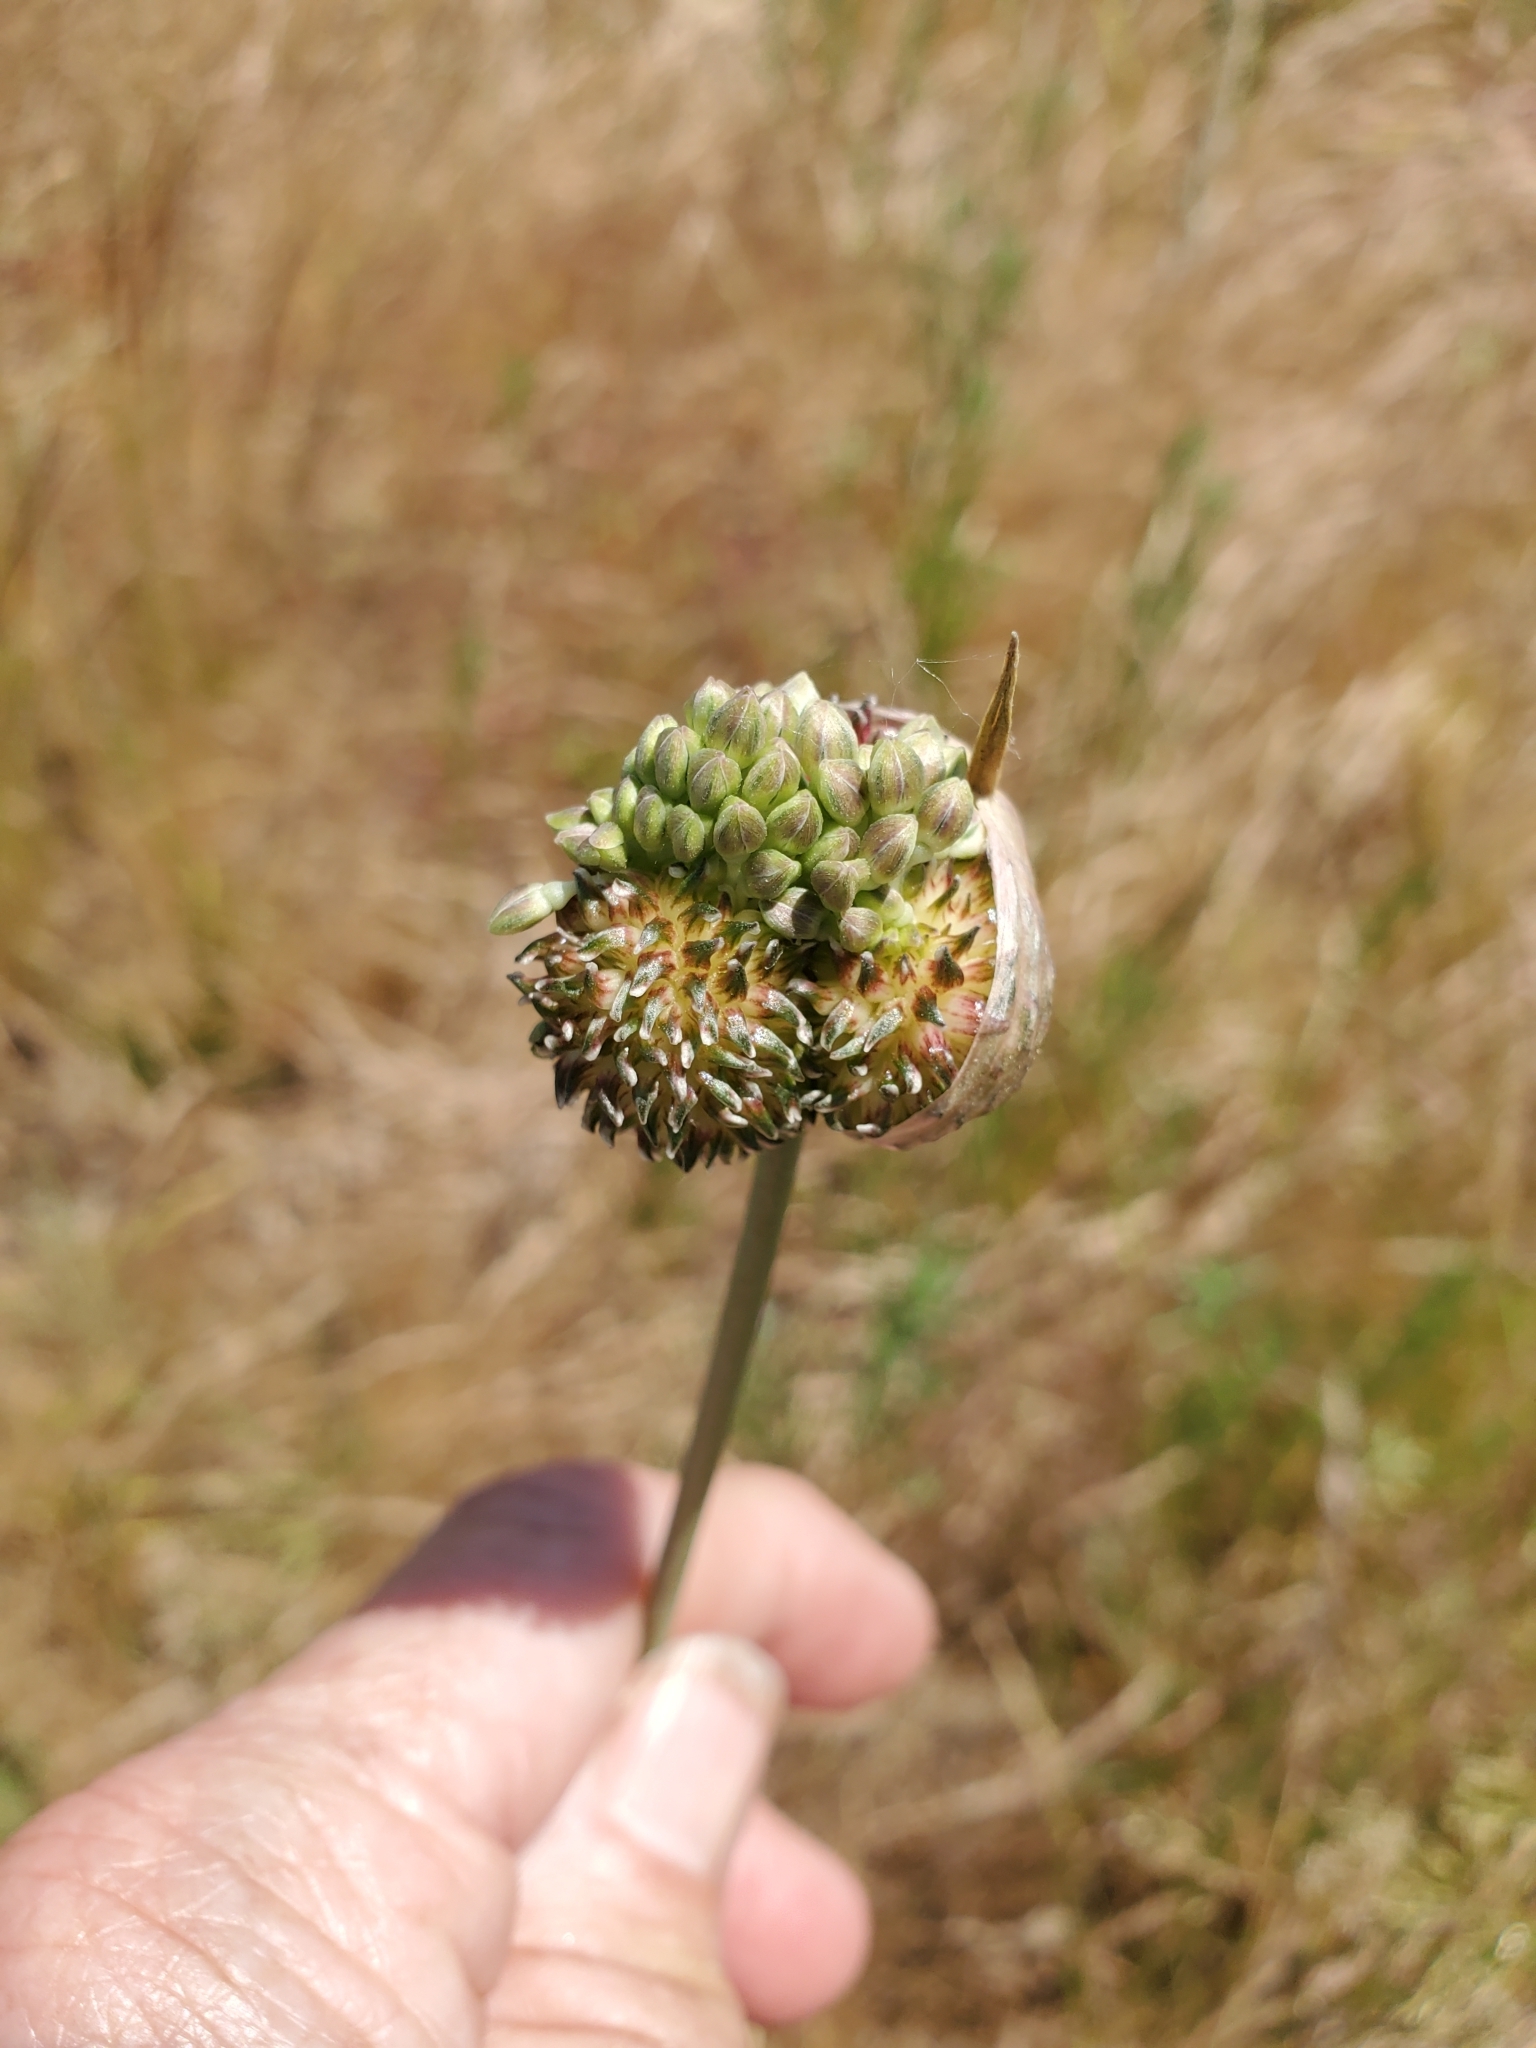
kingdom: Plantae
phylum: Tracheophyta
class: Liliopsida
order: Asparagales
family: Amaryllidaceae
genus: Allium
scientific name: Allium vineale
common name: Crow garlic
